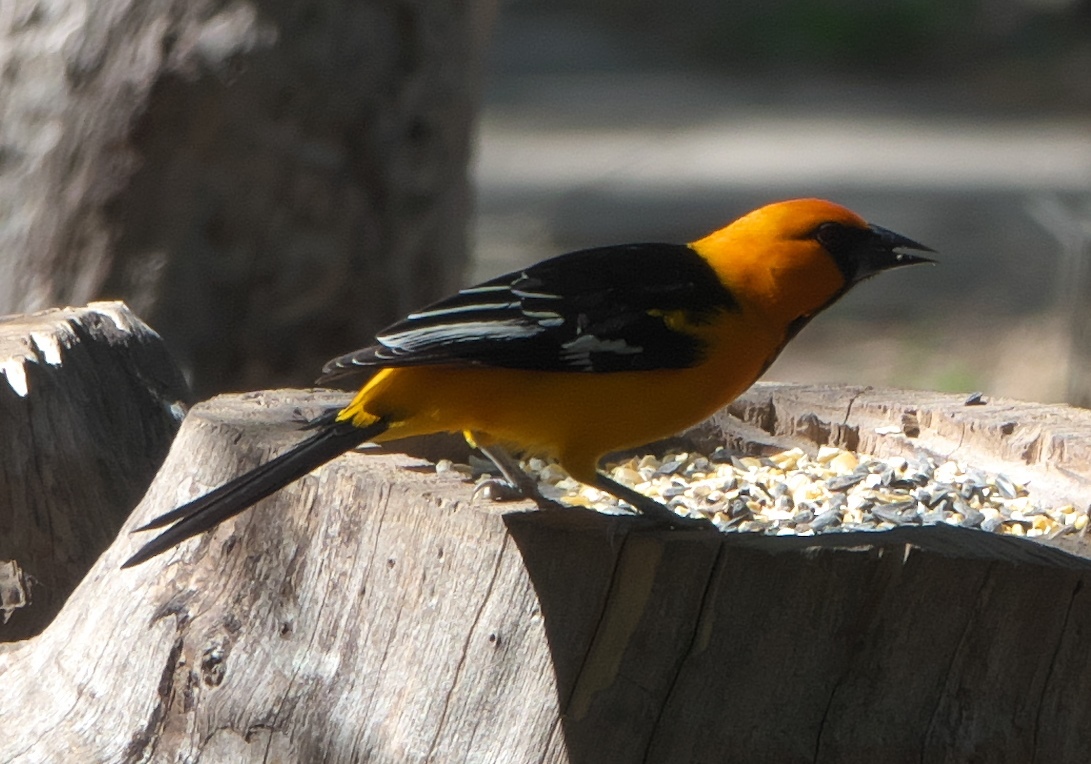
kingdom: Animalia
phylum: Chordata
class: Aves
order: Passeriformes
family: Icteridae
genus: Icterus
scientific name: Icterus gularis
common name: Altamira oriole
